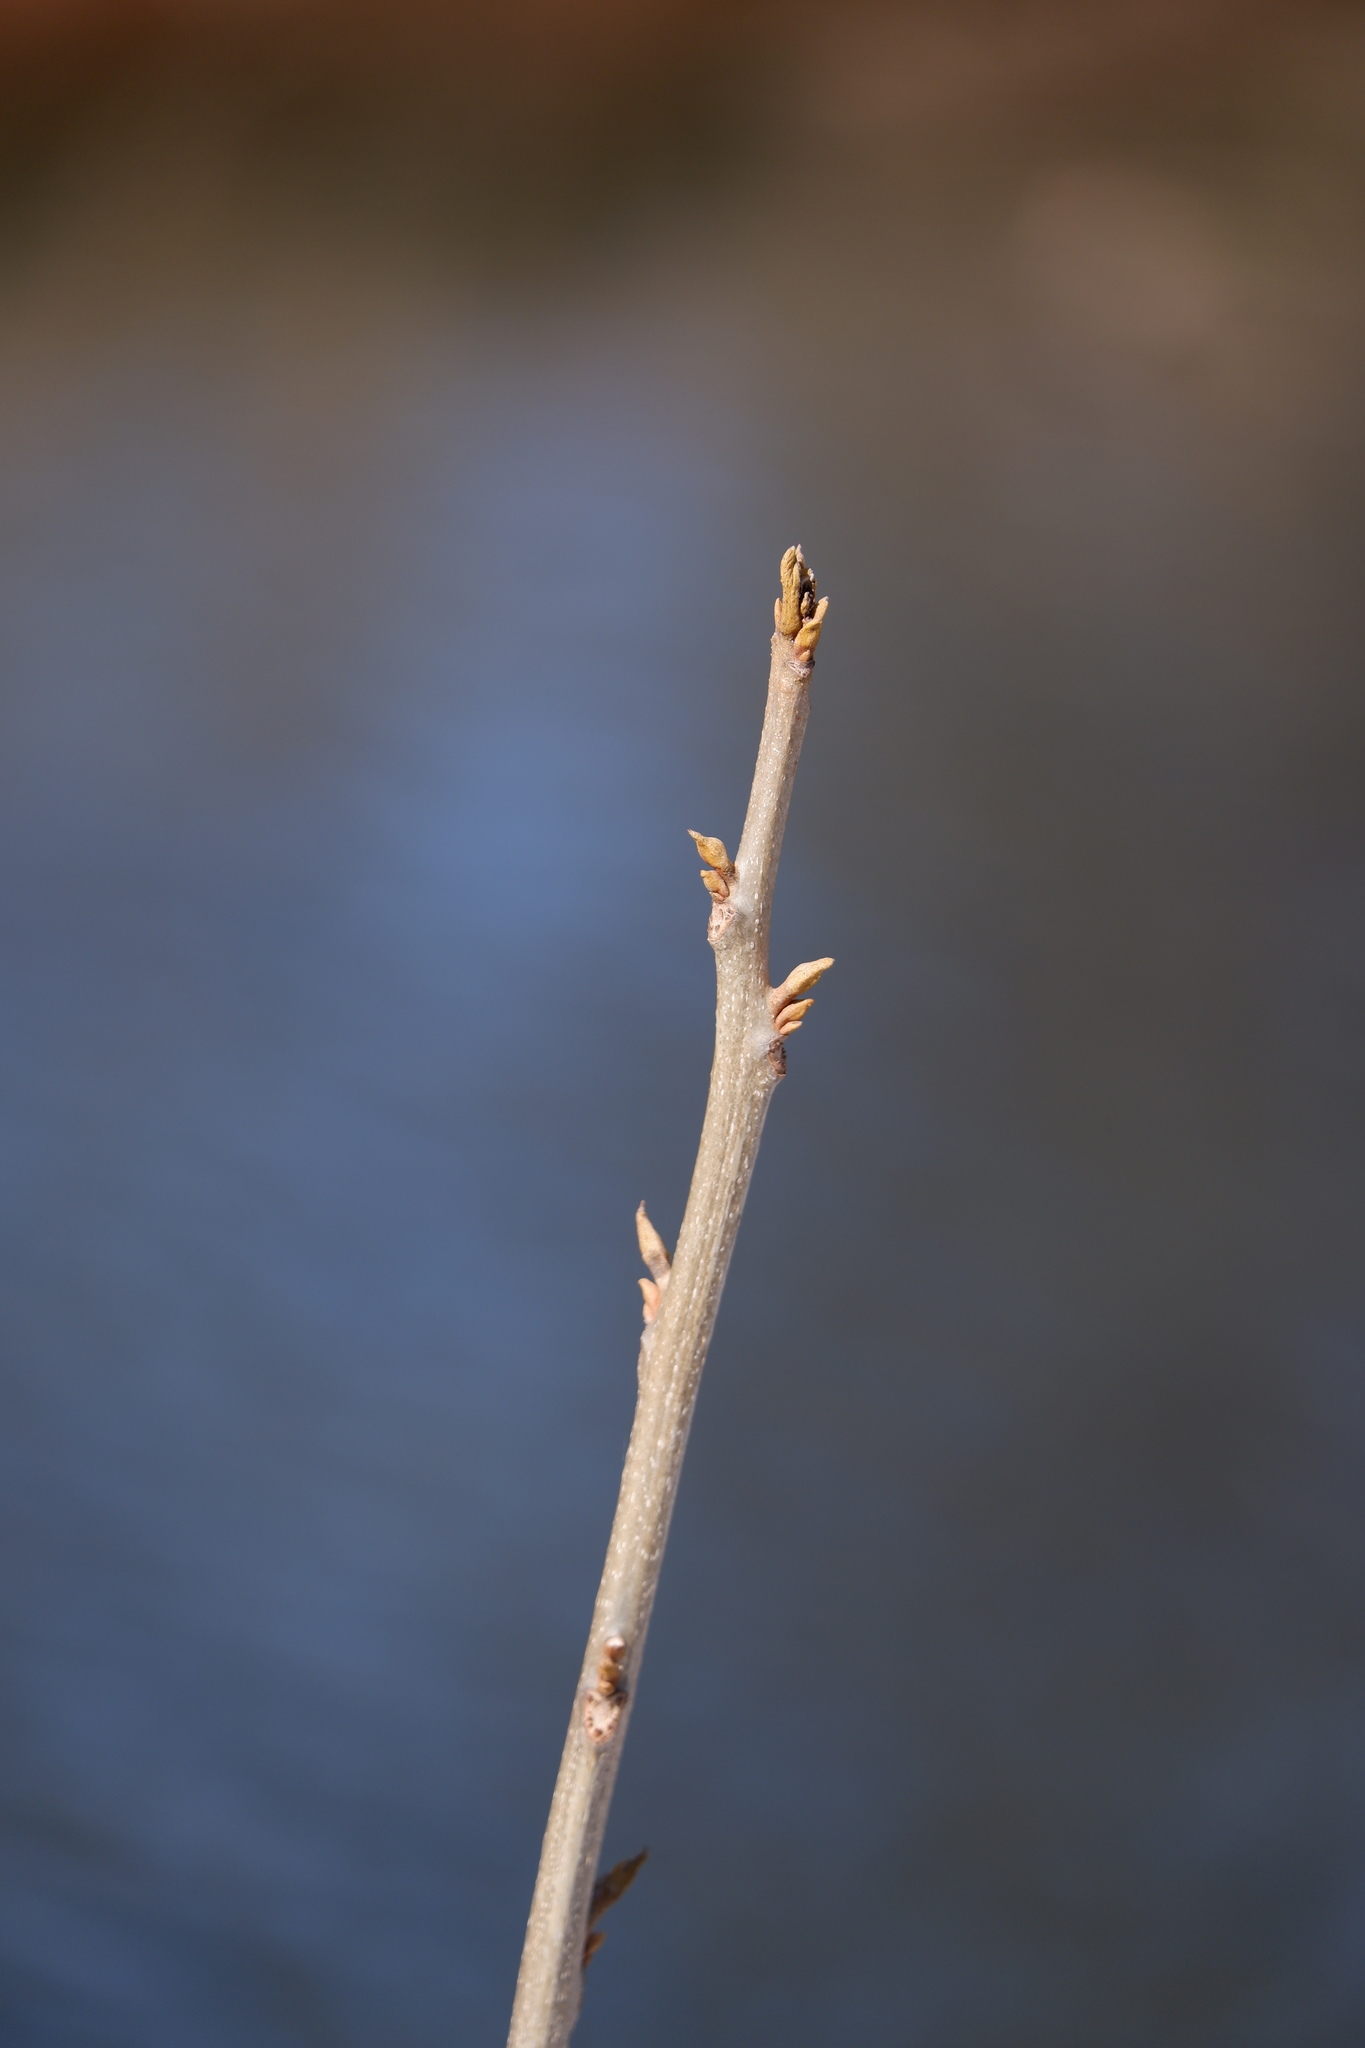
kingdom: Plantae
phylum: Tracheophyta
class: Magnoliopsida
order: Fagales
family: Juglandaceae
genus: Carya
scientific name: Carya cordiformis
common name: Bitternut hickory
